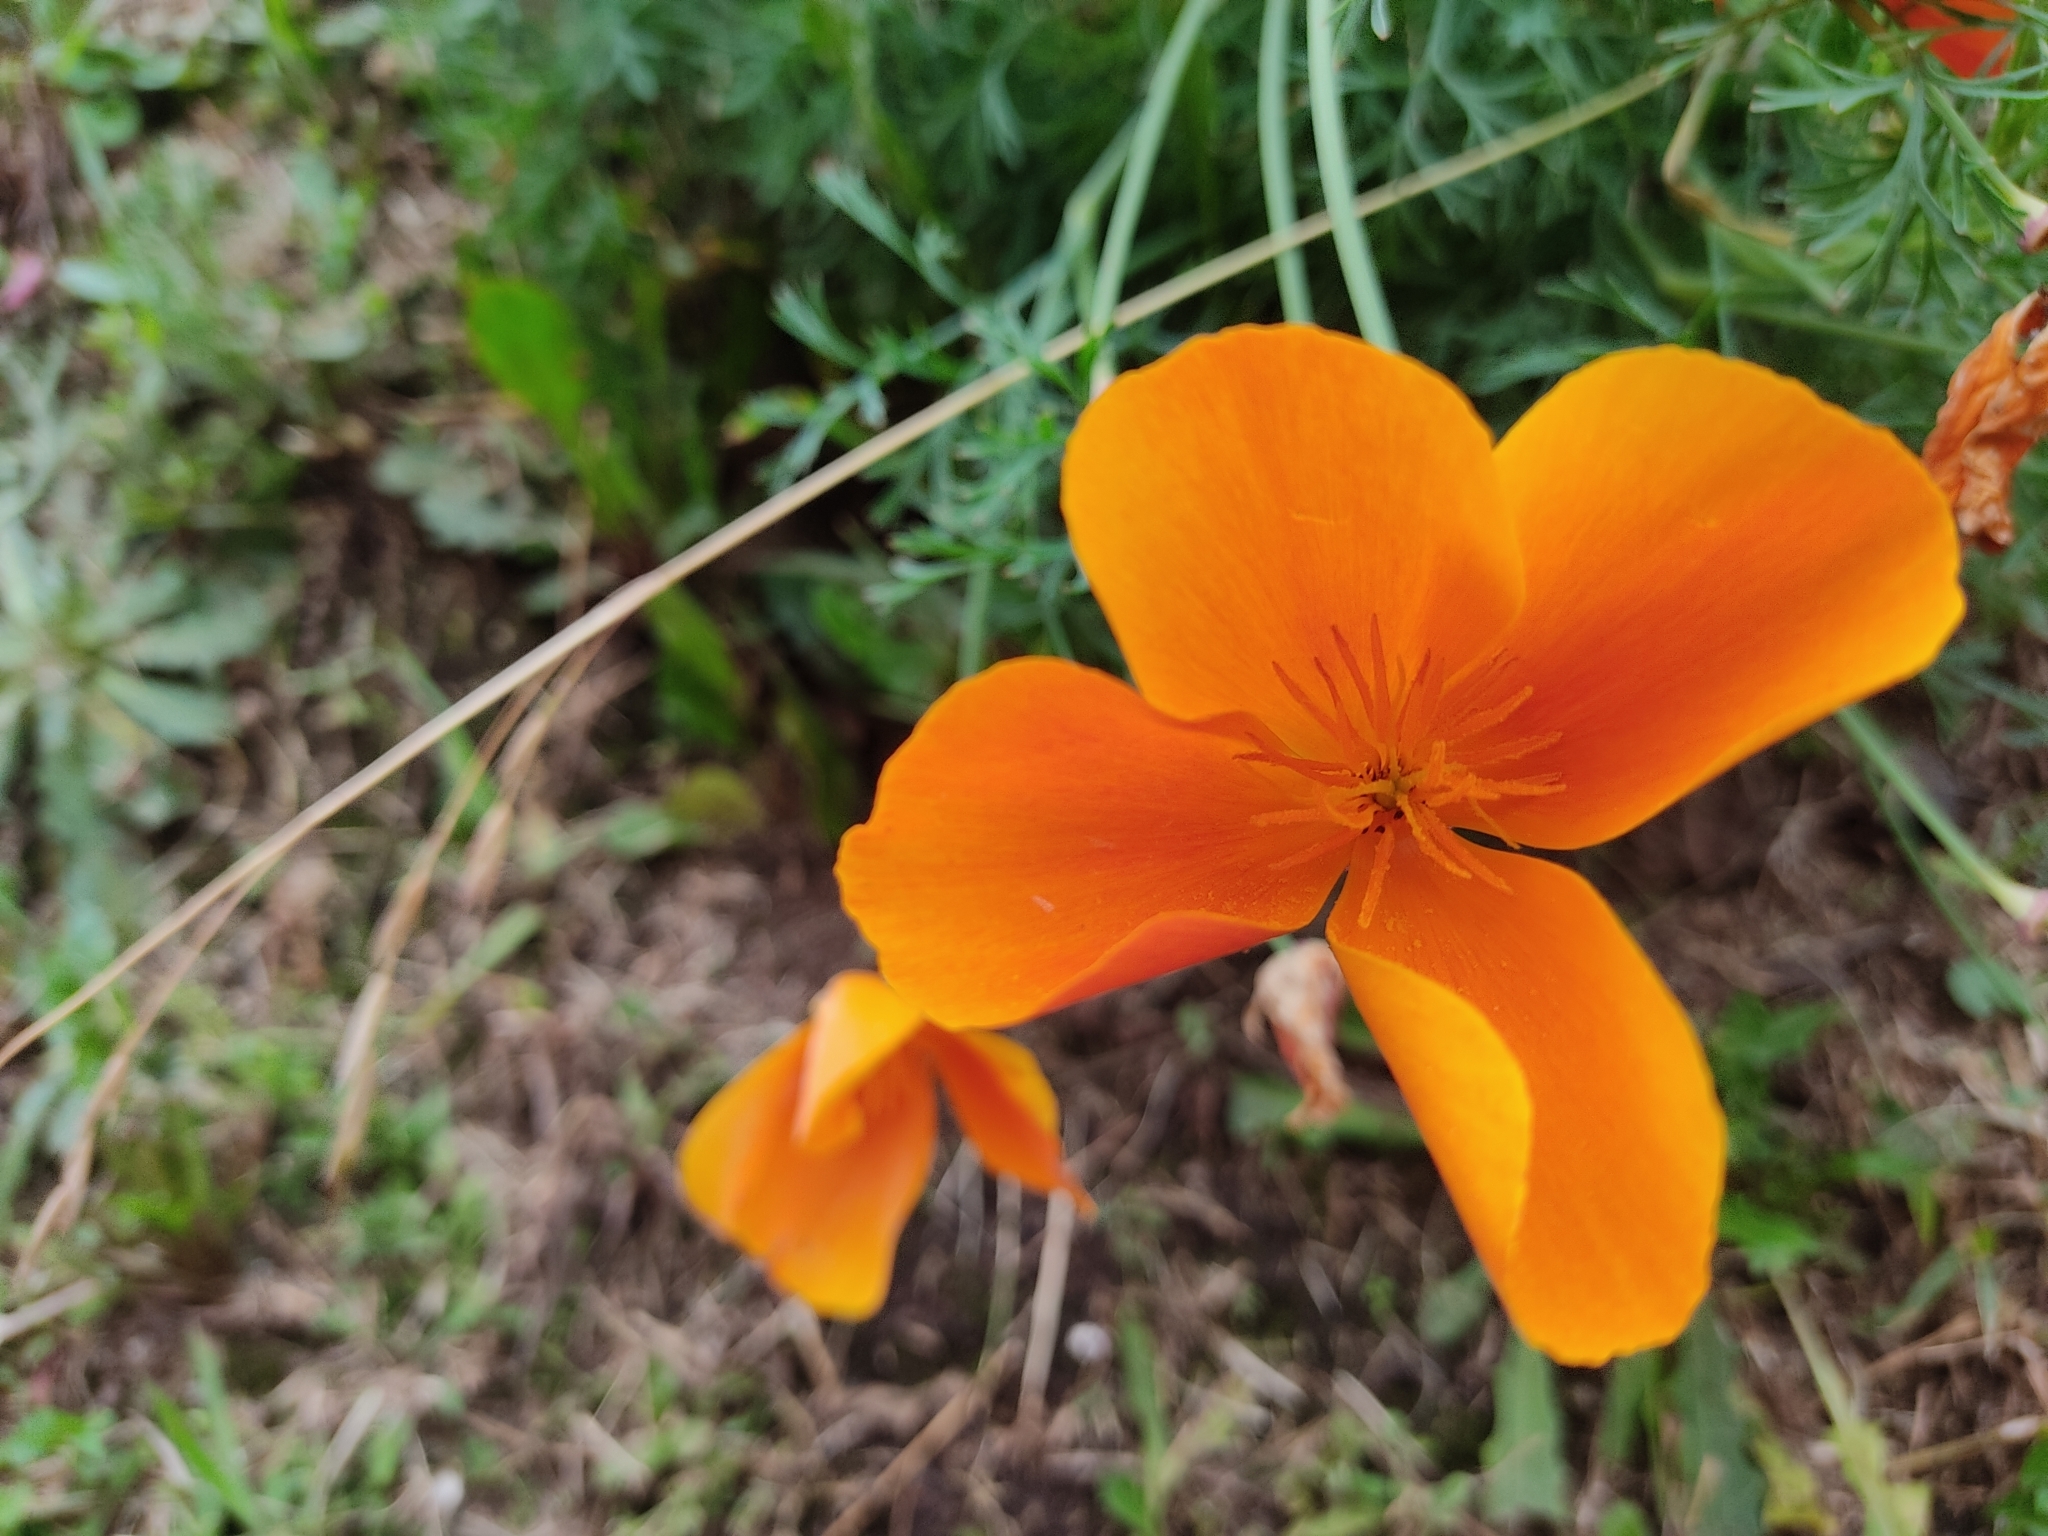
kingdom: Plantae
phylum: Tracheophyta
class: Magnoliopsida
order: Ranunculales
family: Papaveraceae
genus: Eschscholzia
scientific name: Eschscholzia californica
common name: California poppy
